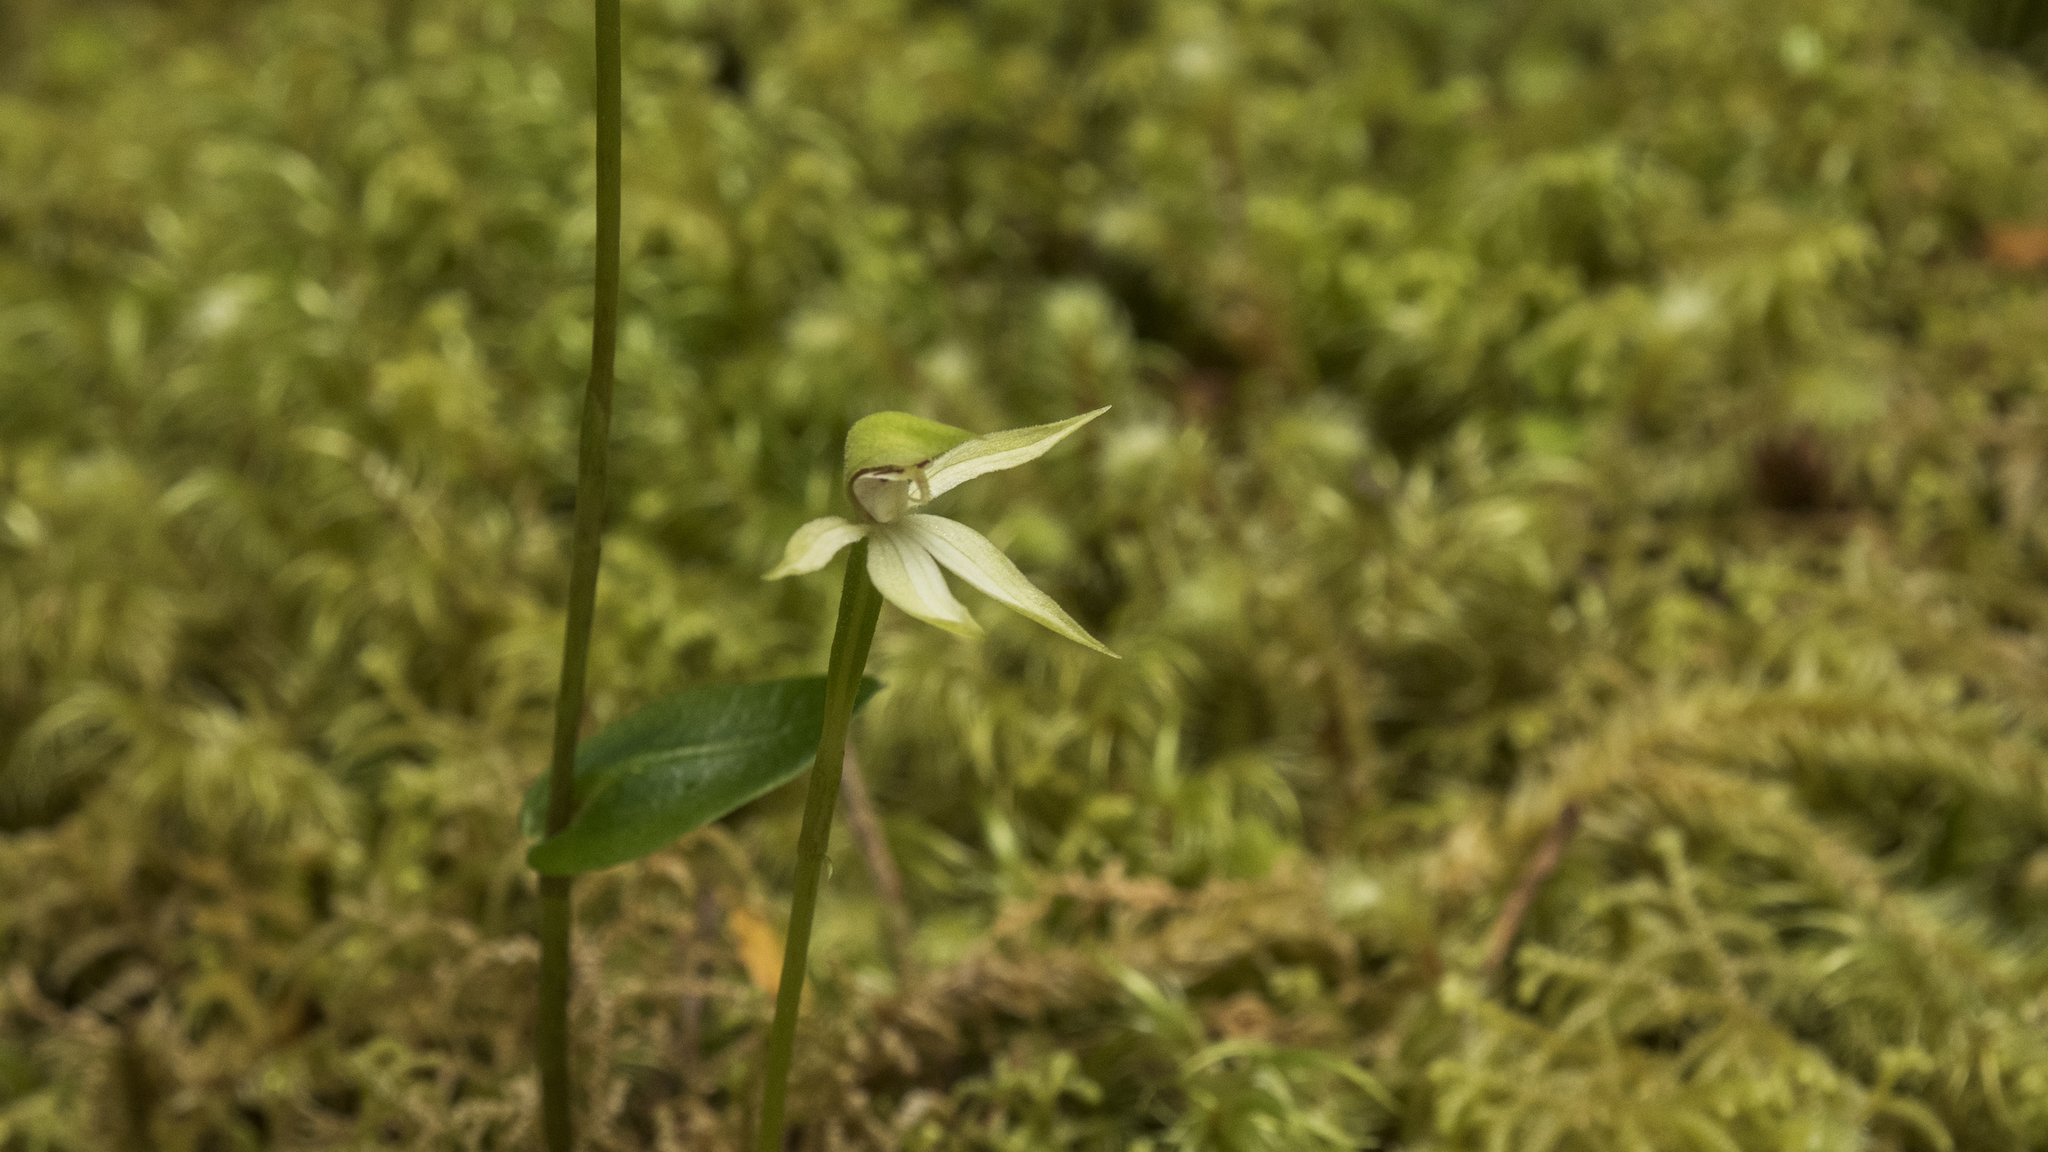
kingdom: Plantae
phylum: Tracheophyta
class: Liliopsida
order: Asparagales
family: Orchidaceae
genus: Adenochilus
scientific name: Adenochilus gracilis
